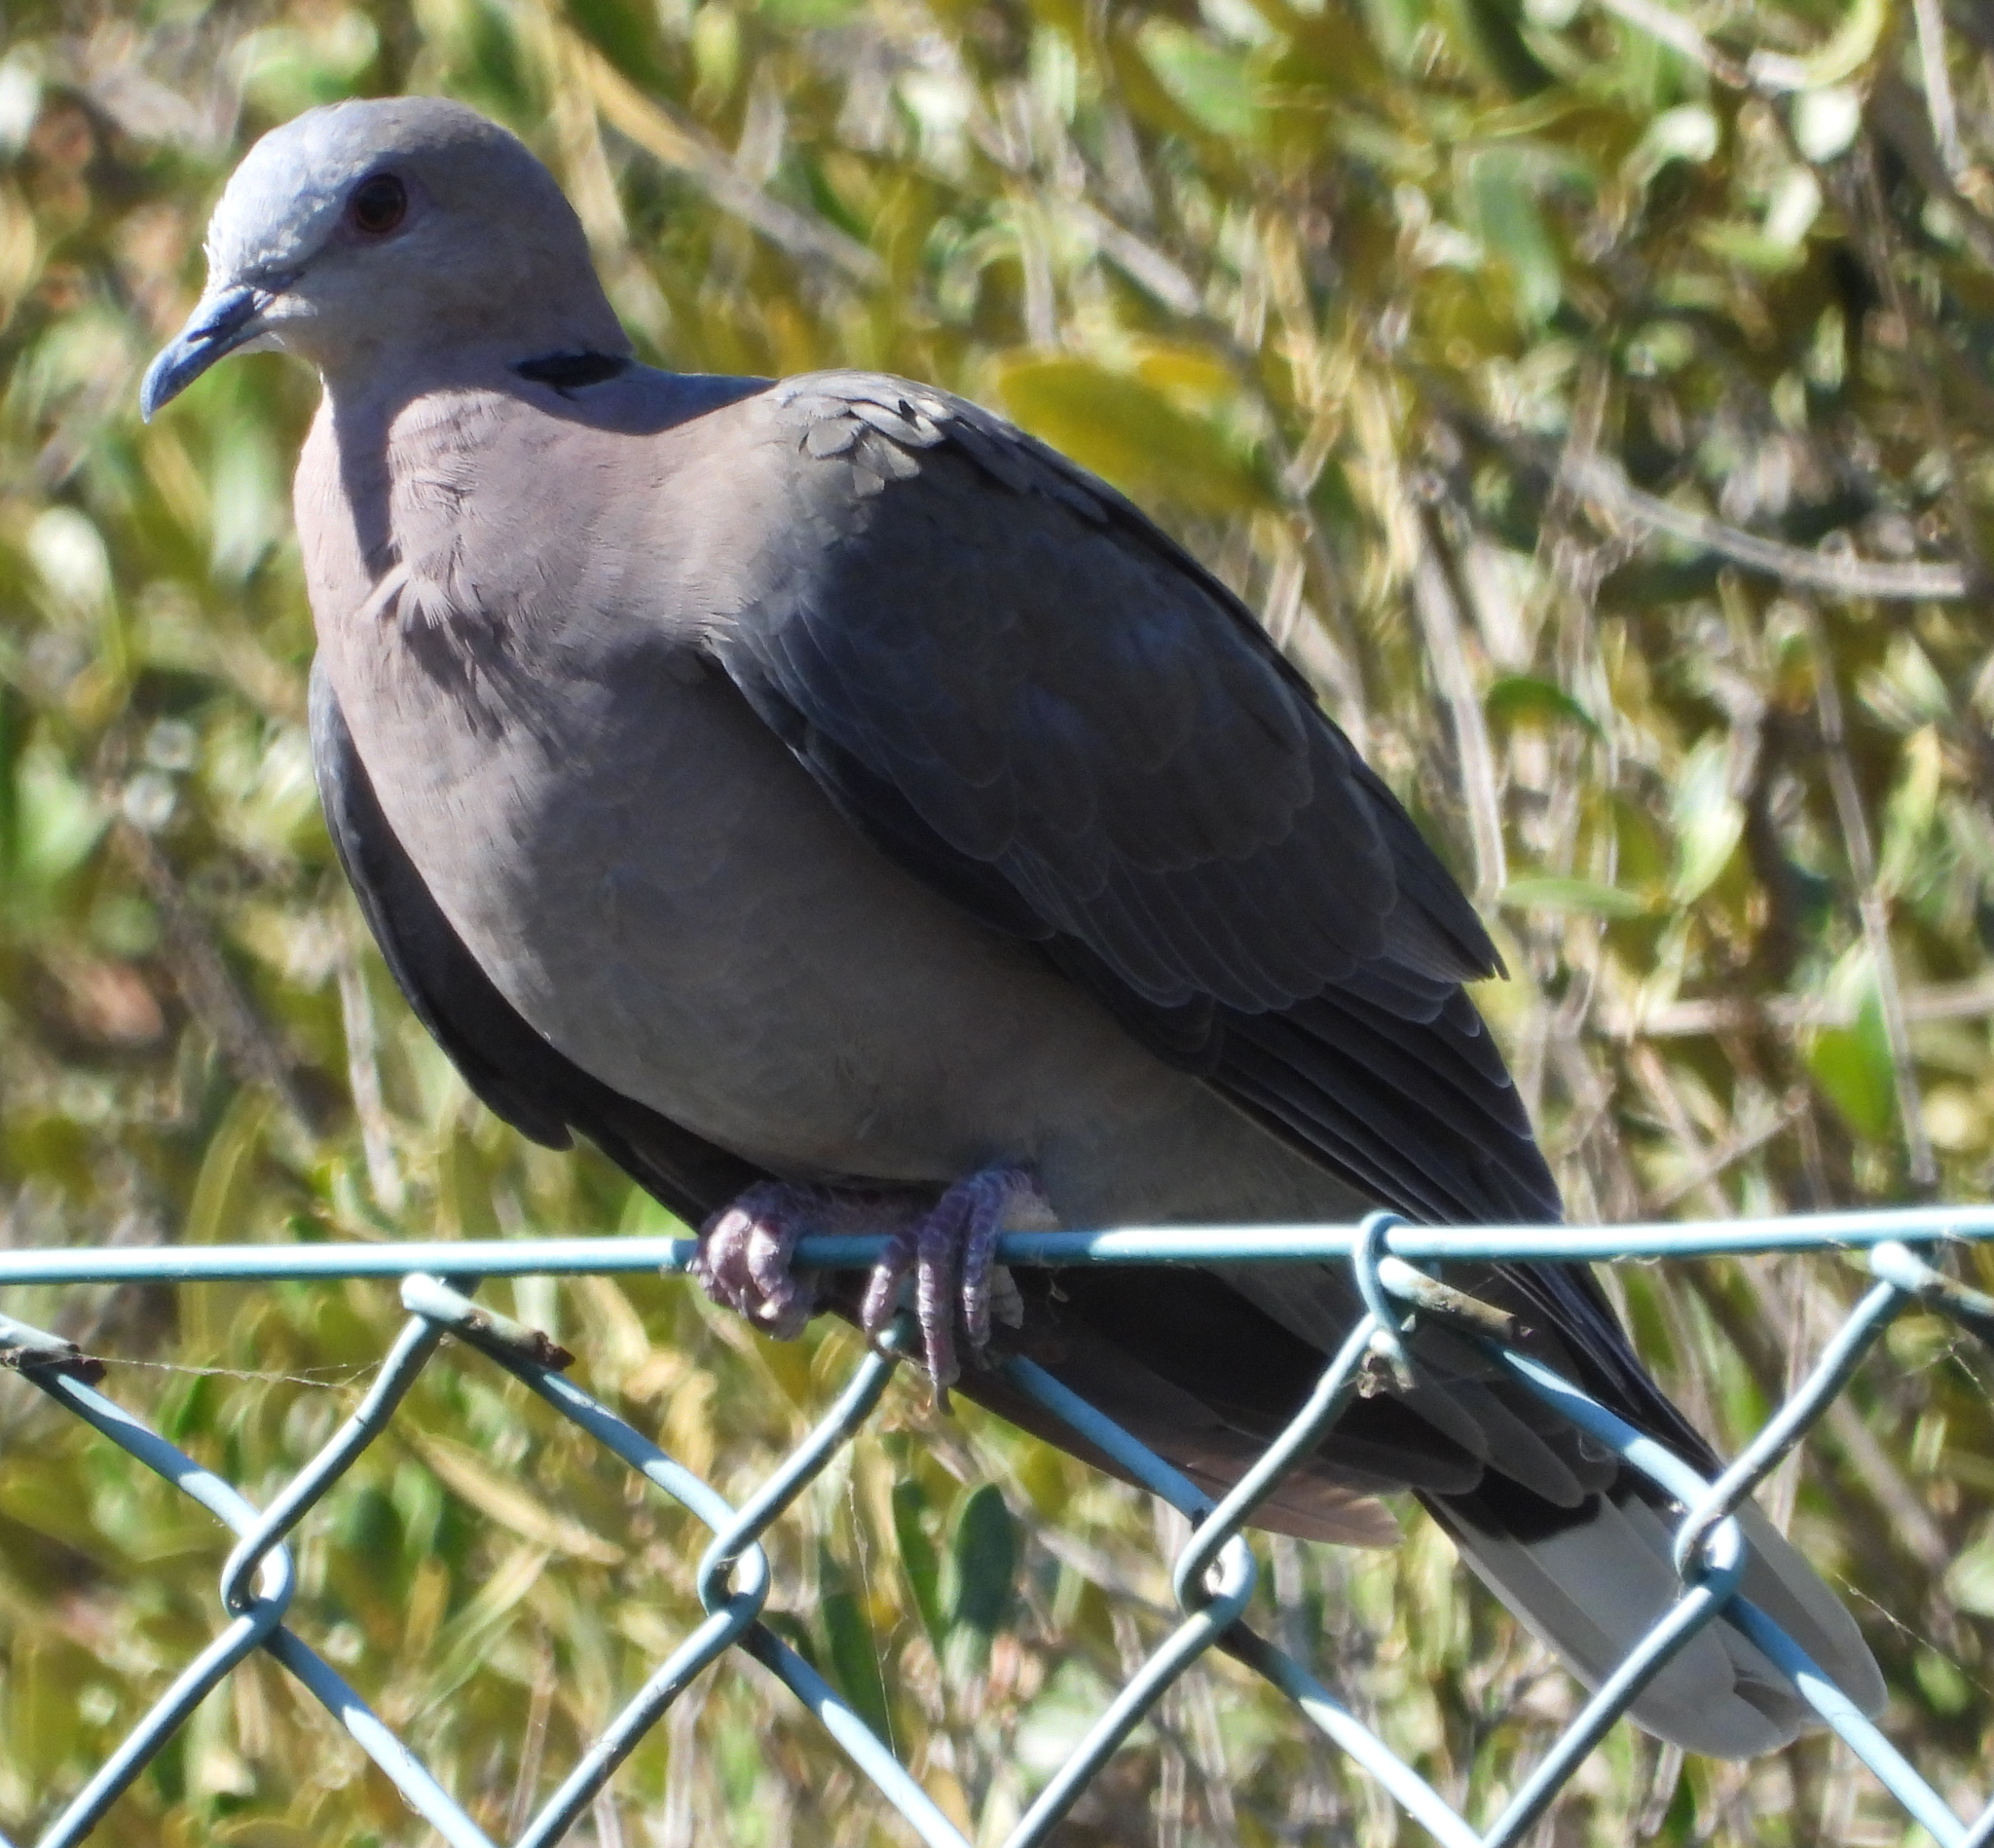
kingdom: Animalia
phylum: Chordata
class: Aves
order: Columbiformes
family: Columbidae
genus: Streptopelia
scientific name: Streptopelia semitorquata
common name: Red-eyed dove
